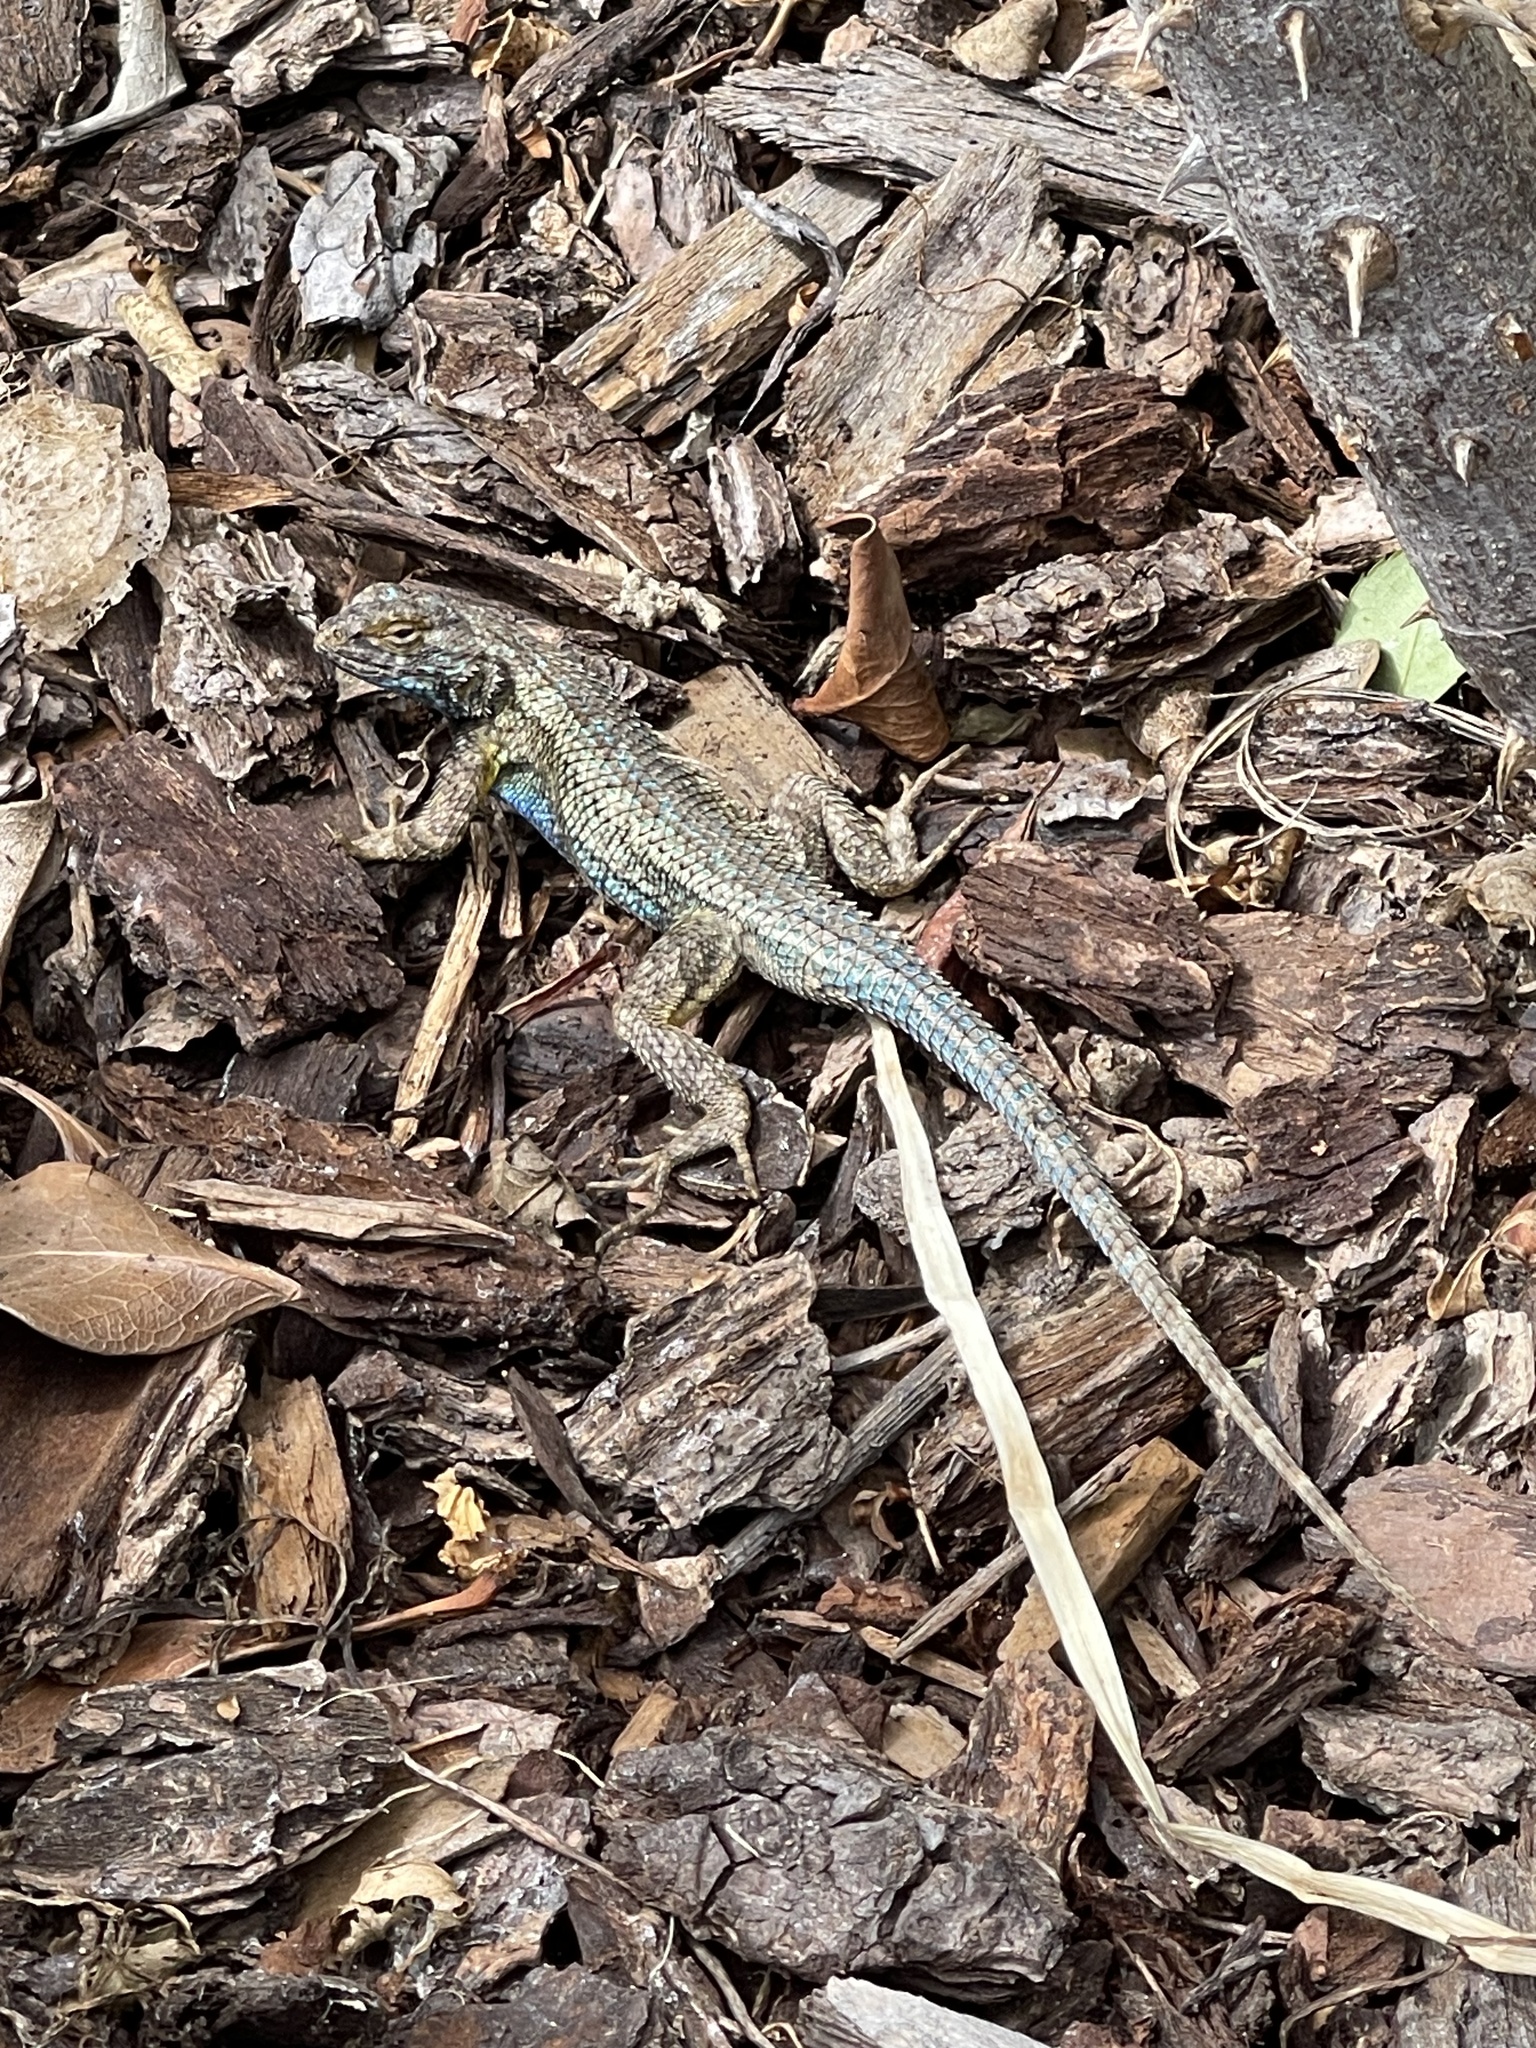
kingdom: Animalia
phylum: Chordata
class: Squamata
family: Phrynosomatidae
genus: Sceloporus
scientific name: Sceloporus occidentalis
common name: Western fence lizard
